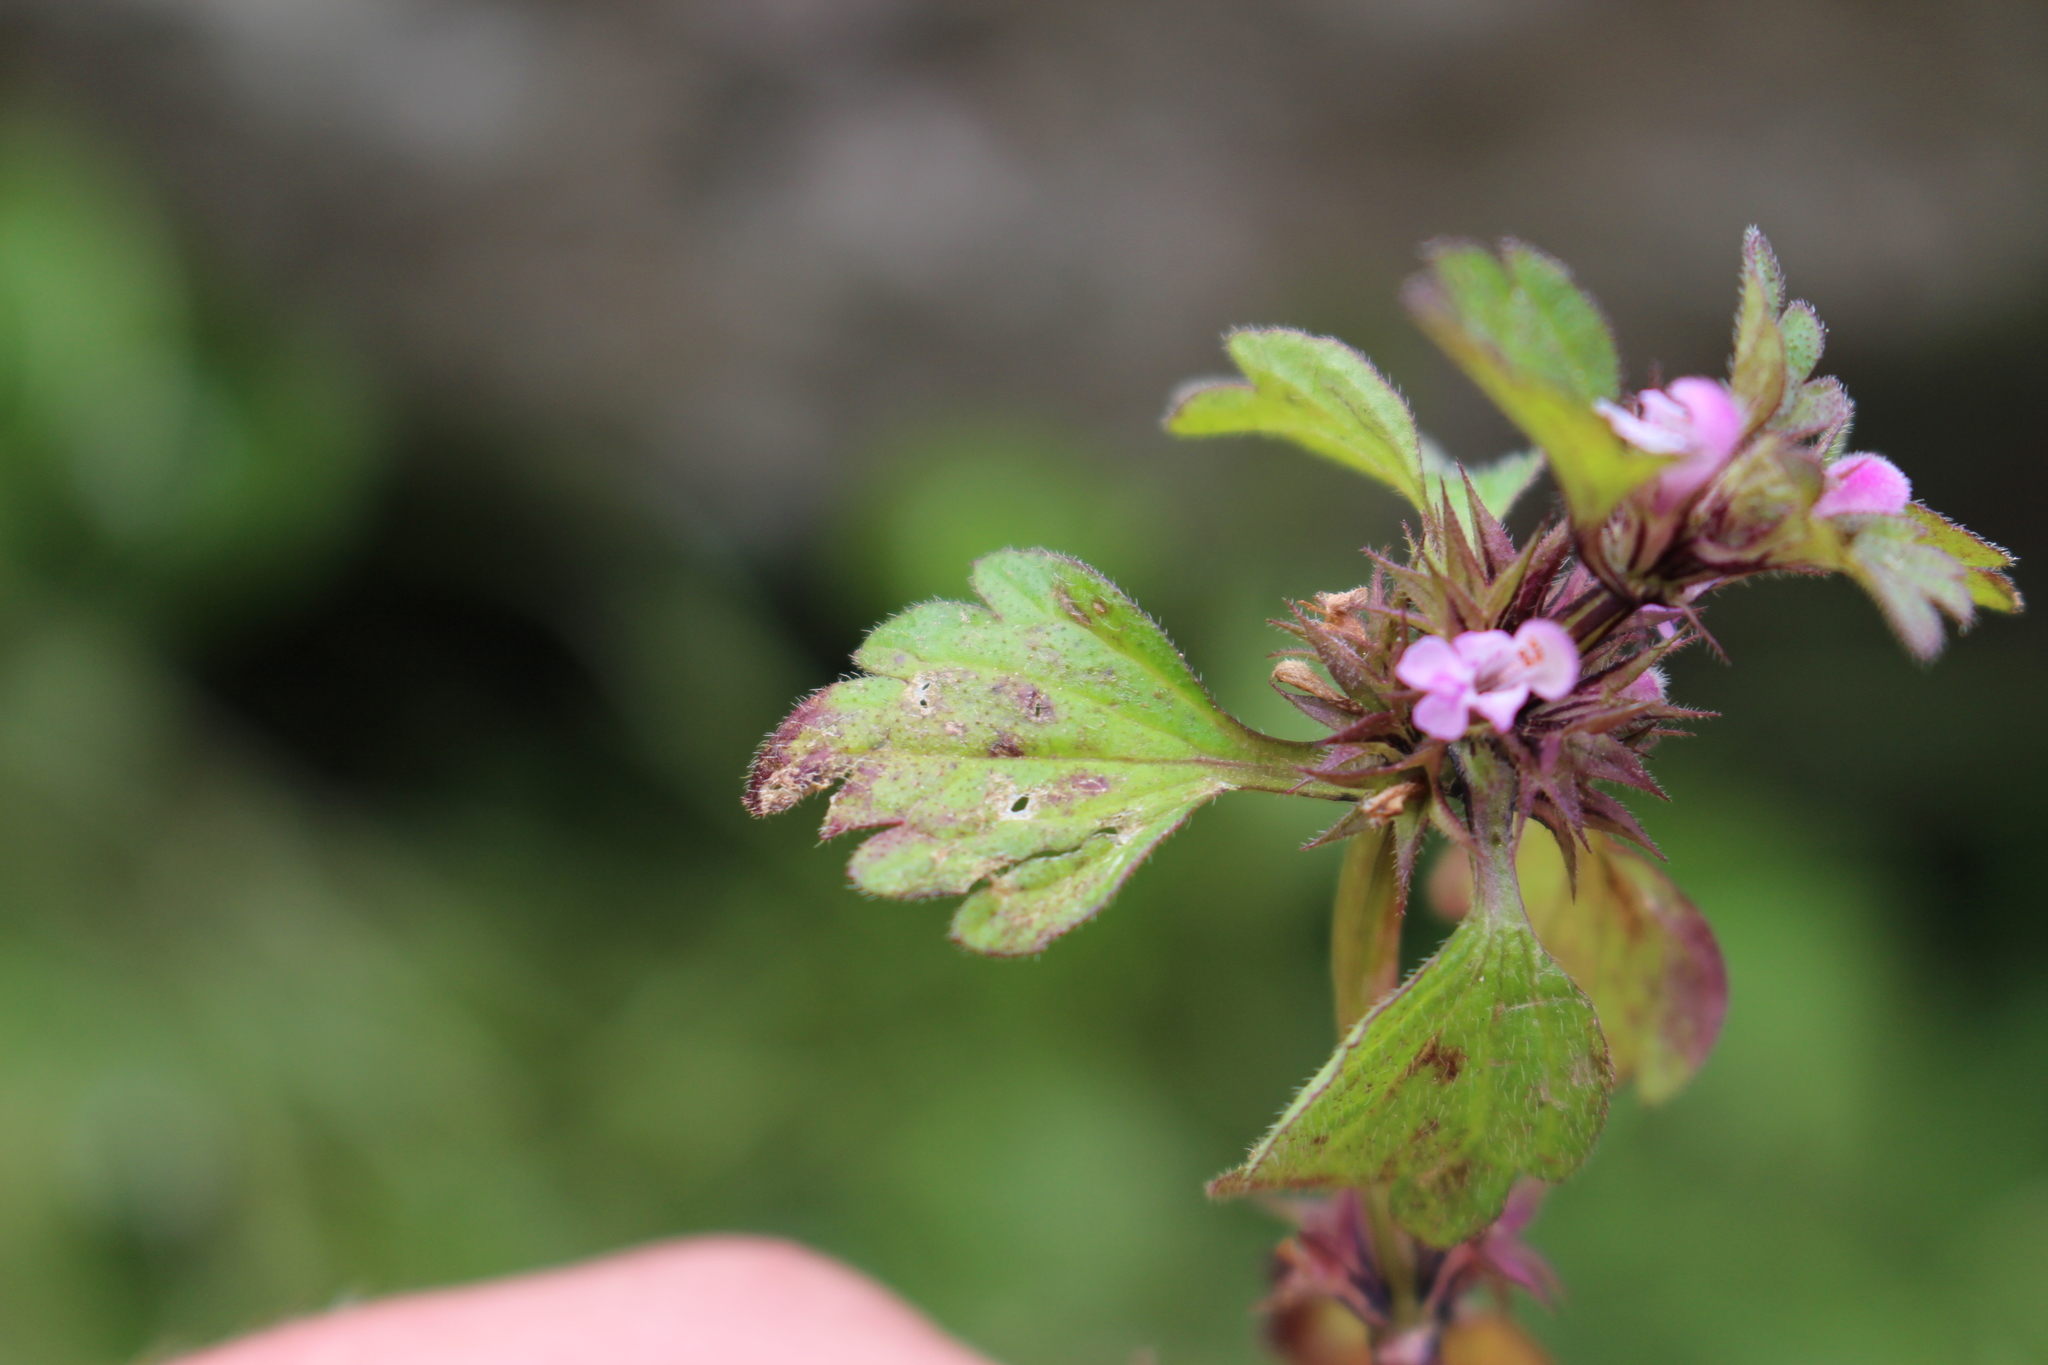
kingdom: Plantae
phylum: Tracheophyta
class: Magnoliopsida
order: Lamiales
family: Lamiaceae
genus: Lamium
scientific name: Lamium hybridum
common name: Cut-leaved dead-nettle
